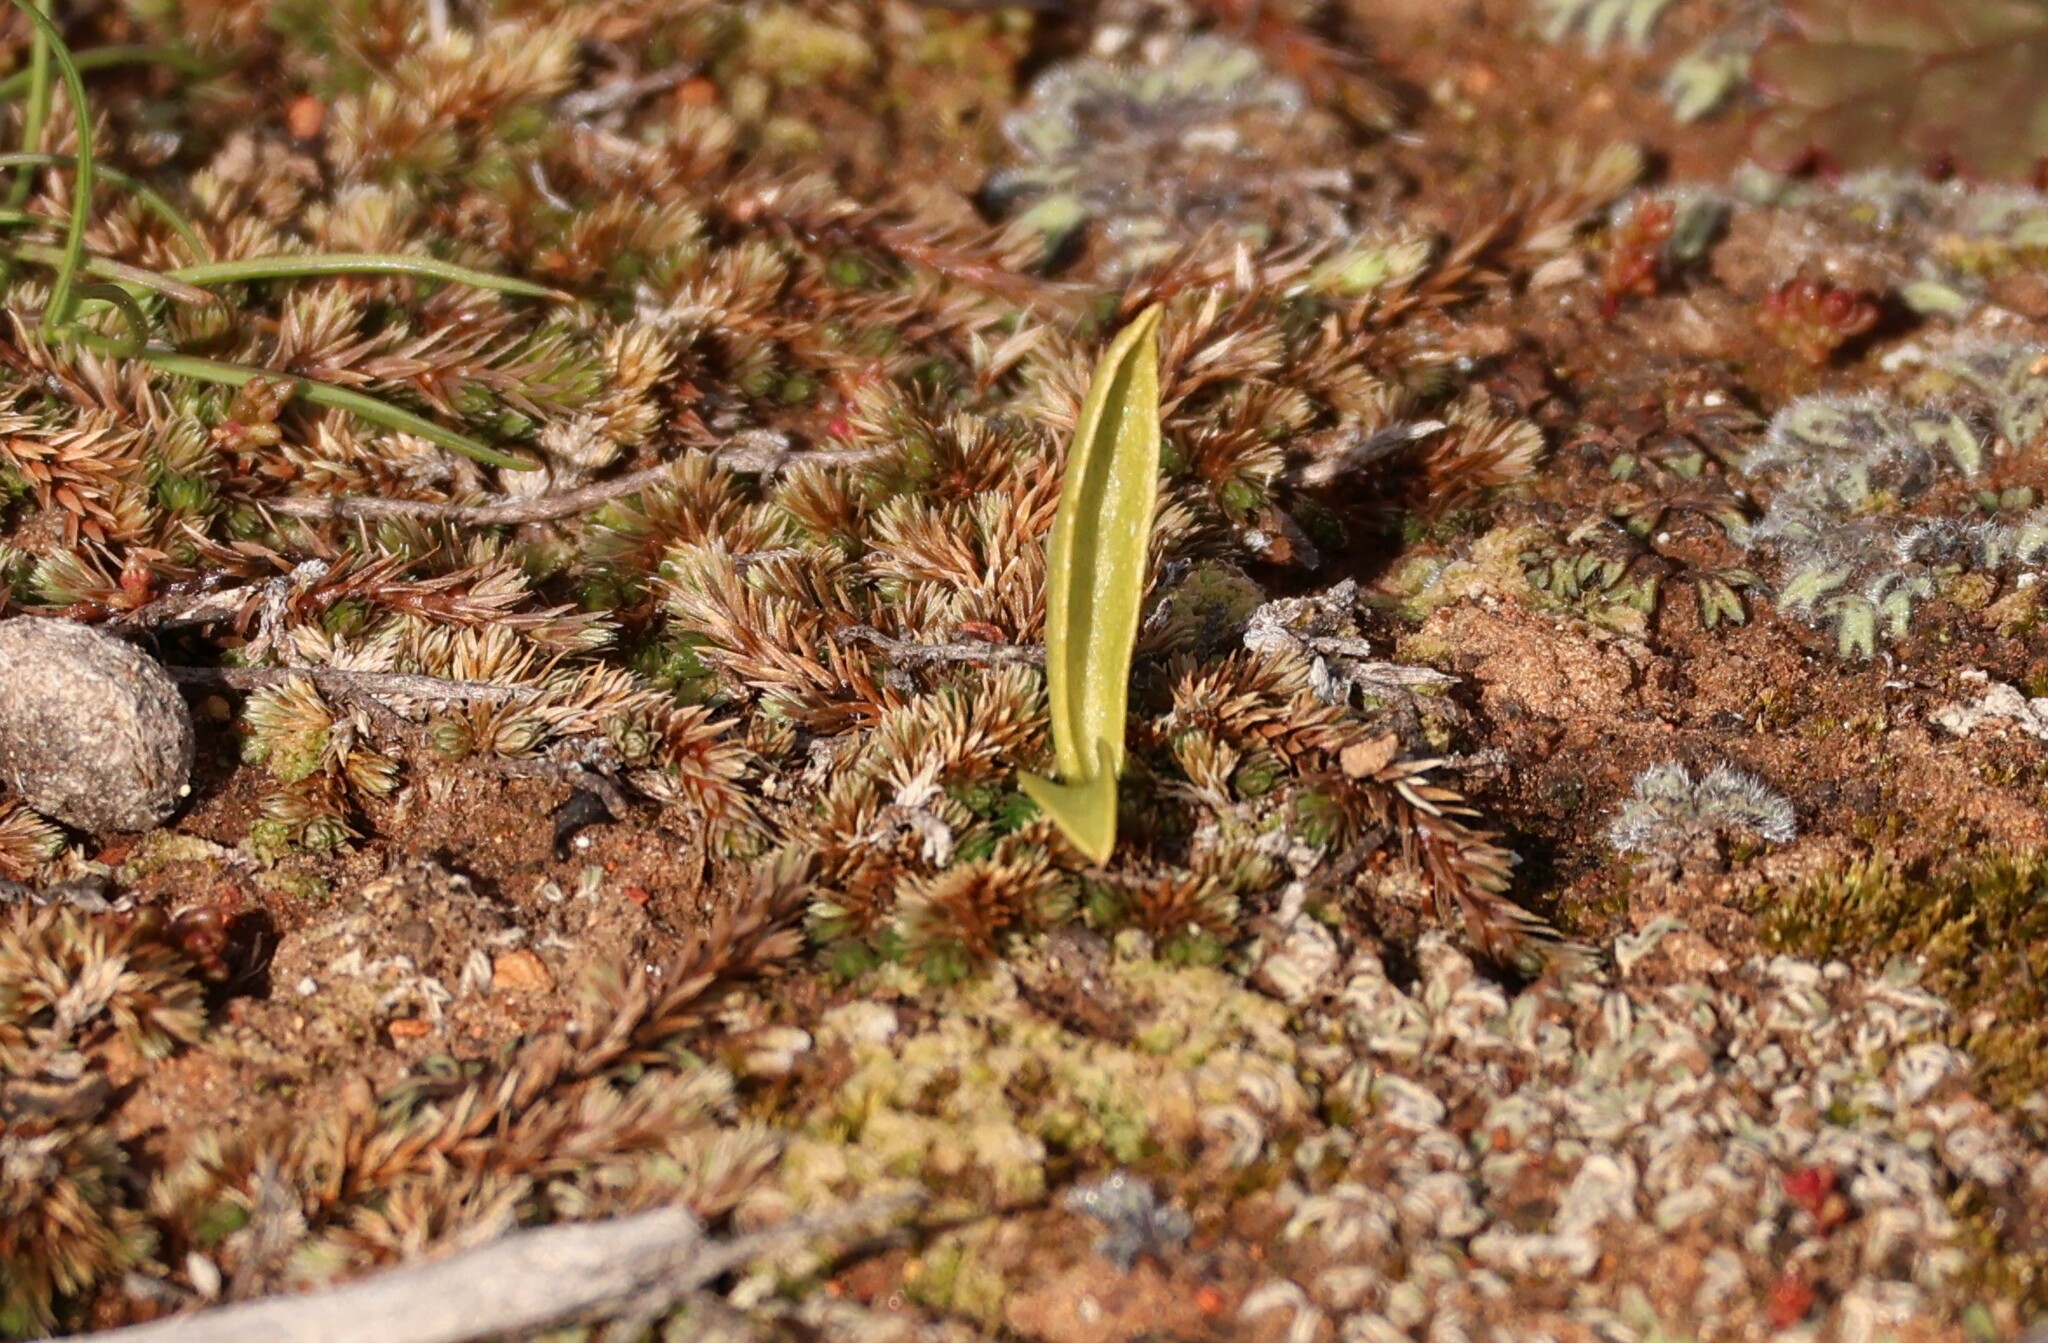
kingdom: Plantae
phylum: Tracheophyta
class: Polypodiopsida
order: Ophioglossales
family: Ophioglossaceae
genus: Ophioglossum
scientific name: Ophioglossum californicum
